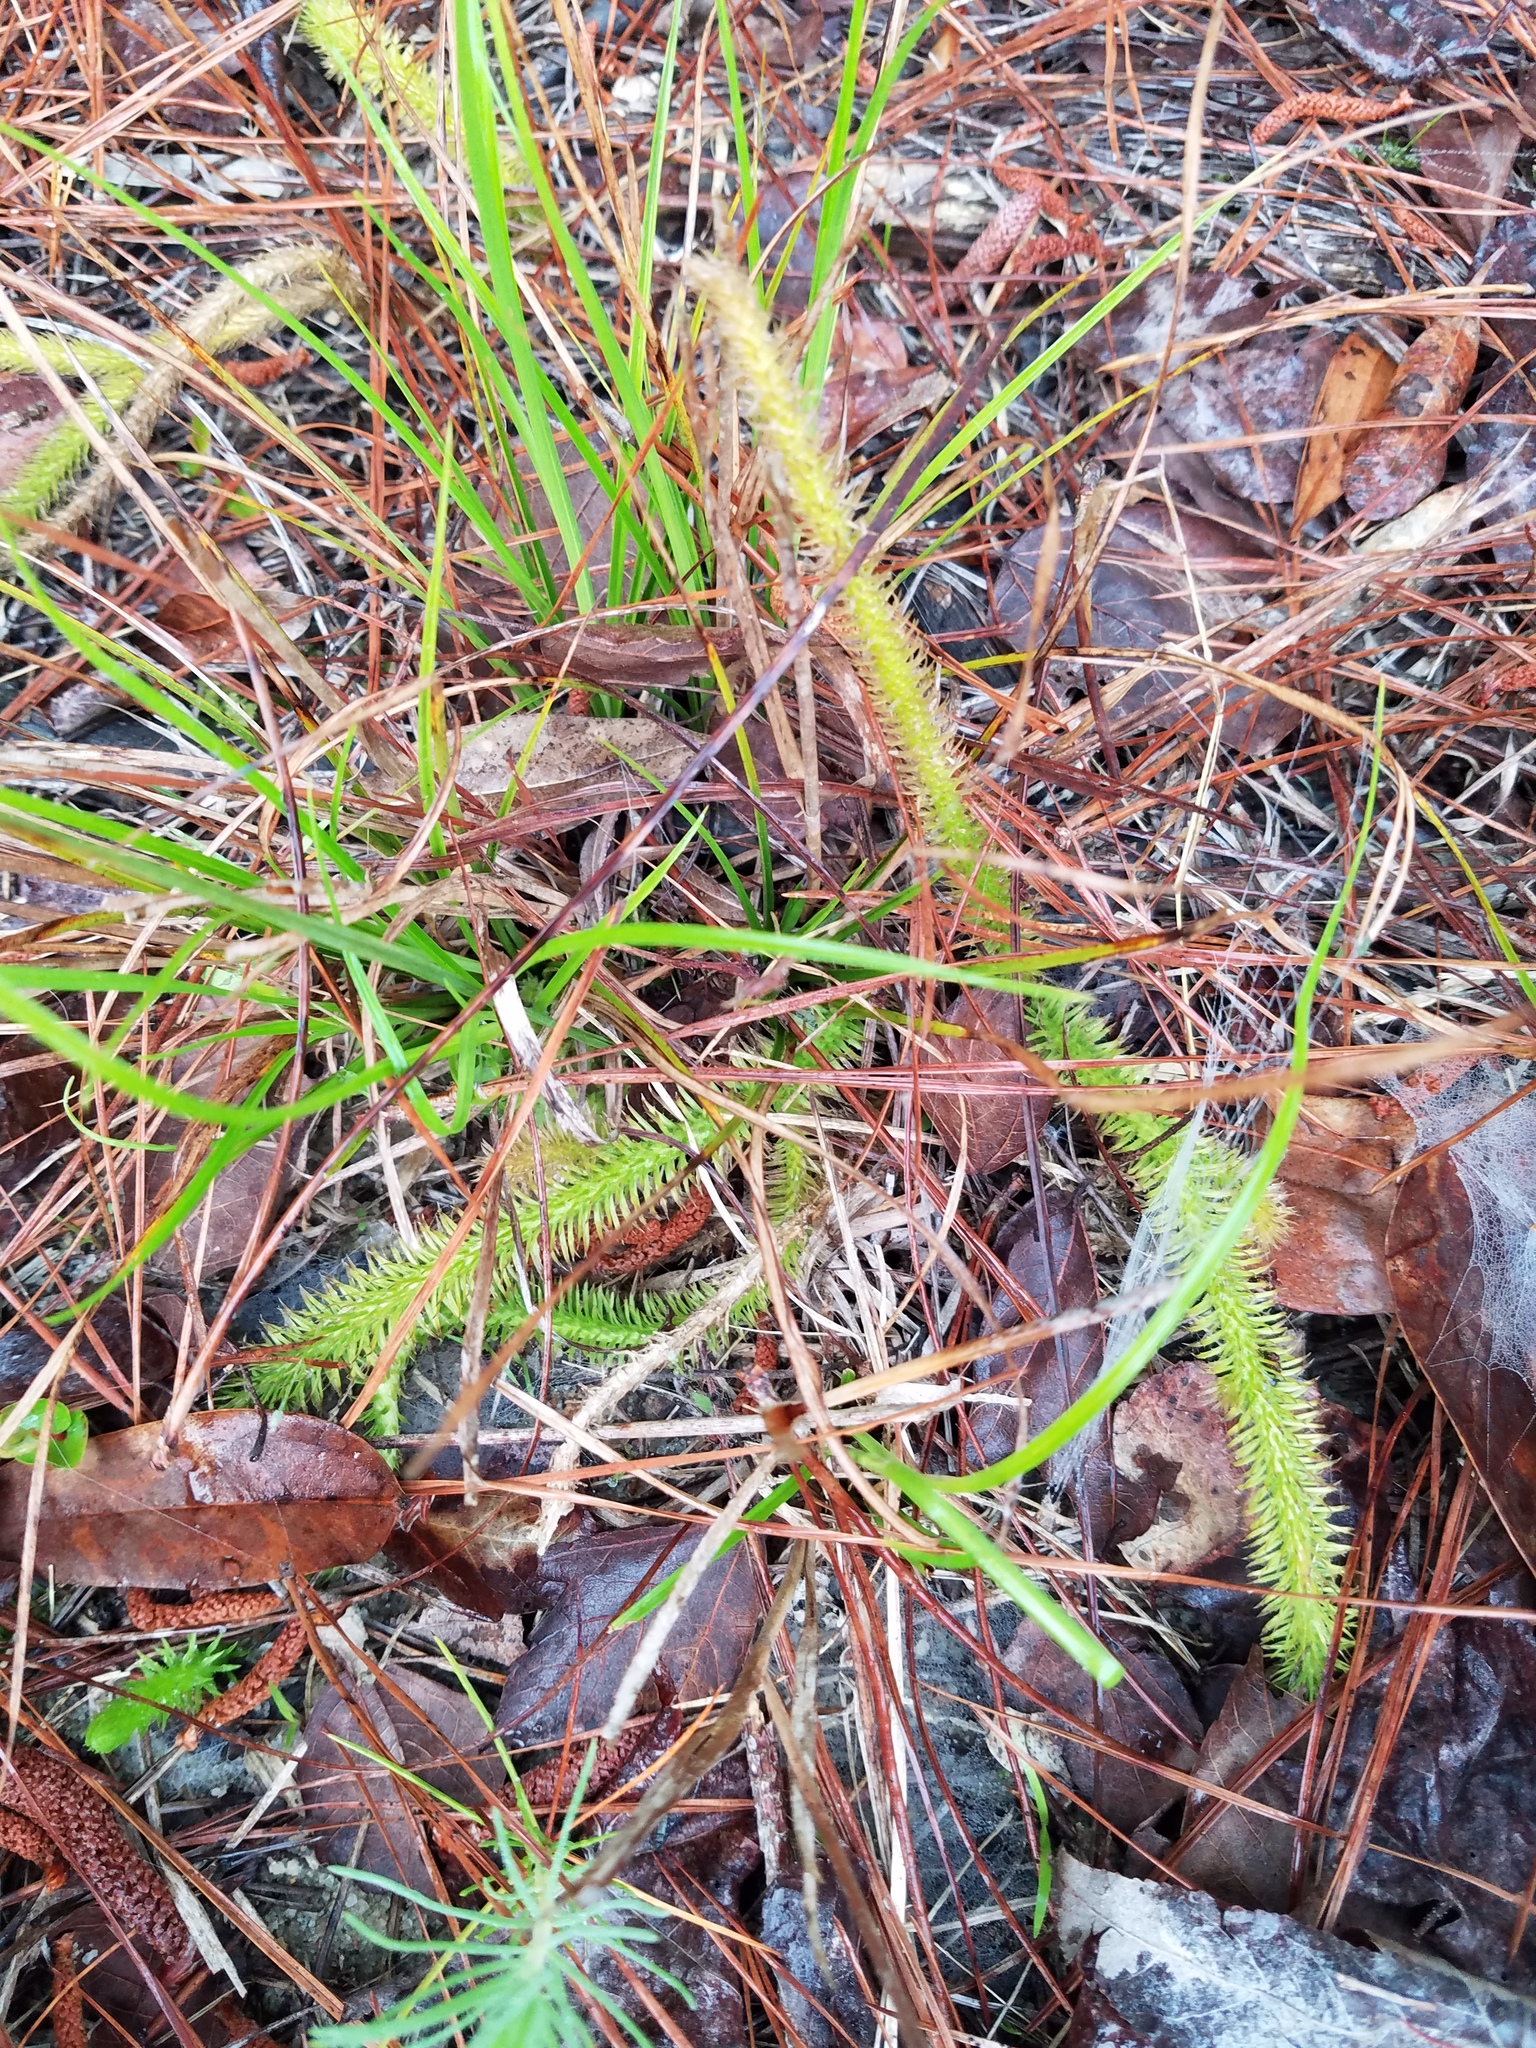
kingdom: Plantae
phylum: Tracheophyta
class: Lycopodiopsida
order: Lycopodiales
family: Lycopodiaceae
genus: Lycopodiella
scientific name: Lycopodiella alopecuroides
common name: Foxtail clubmoss
